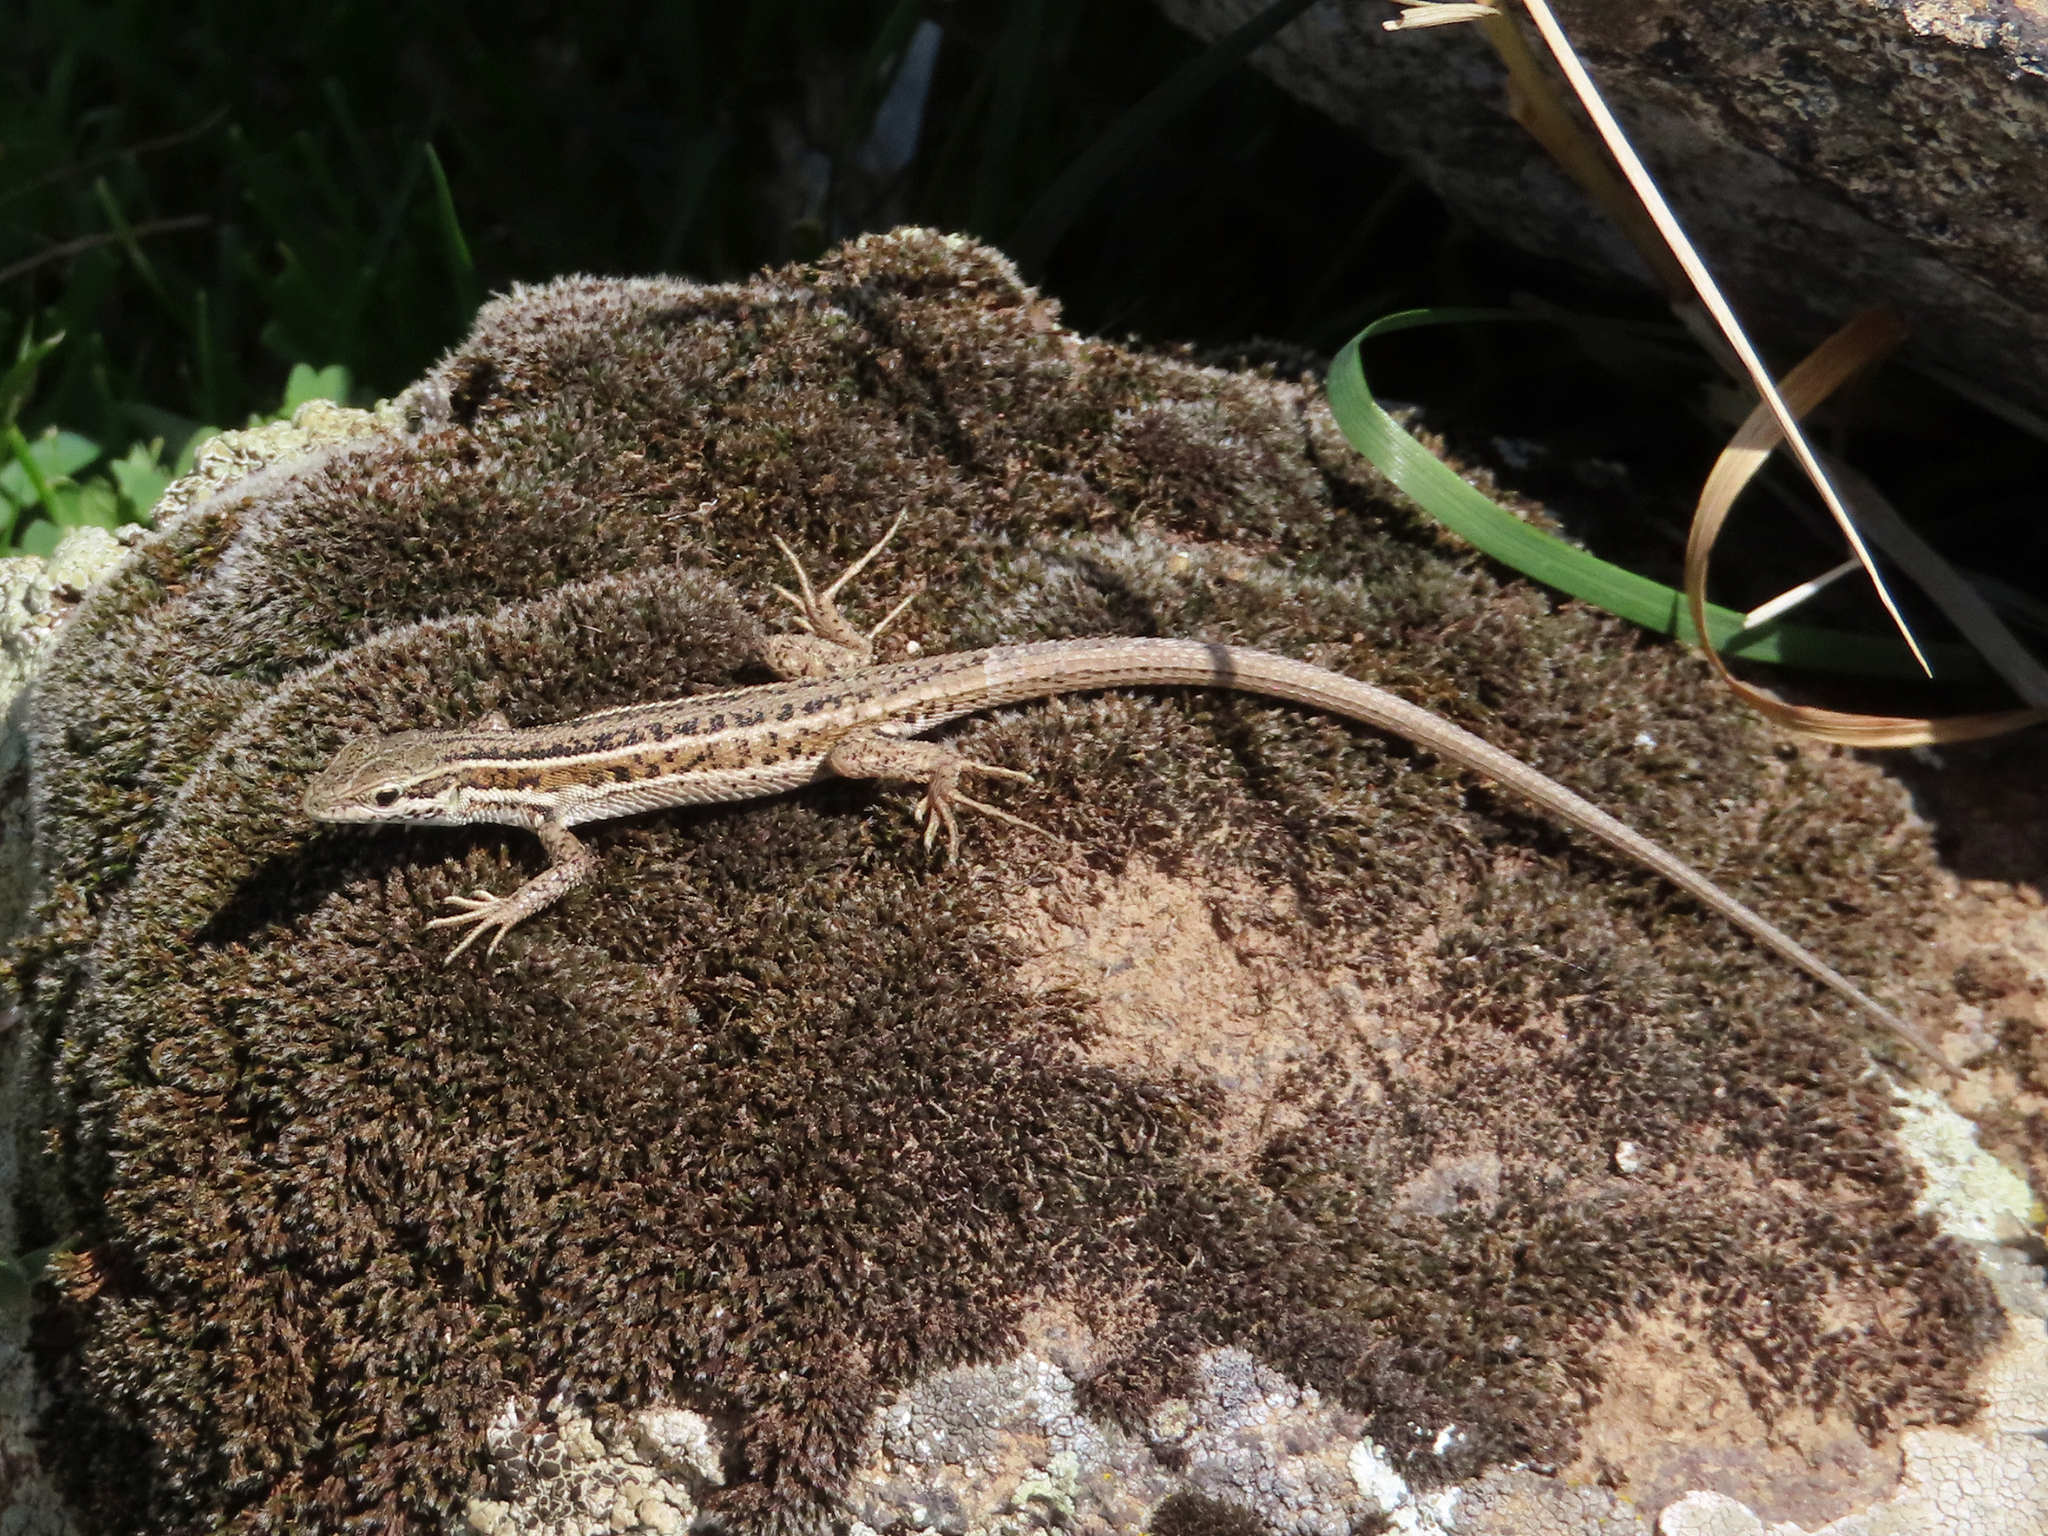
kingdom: Animalia
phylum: Chordata
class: Squamata
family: Lacertidae
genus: Ophisops
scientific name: Ophisops elegans
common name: Snake-eyed lizard
